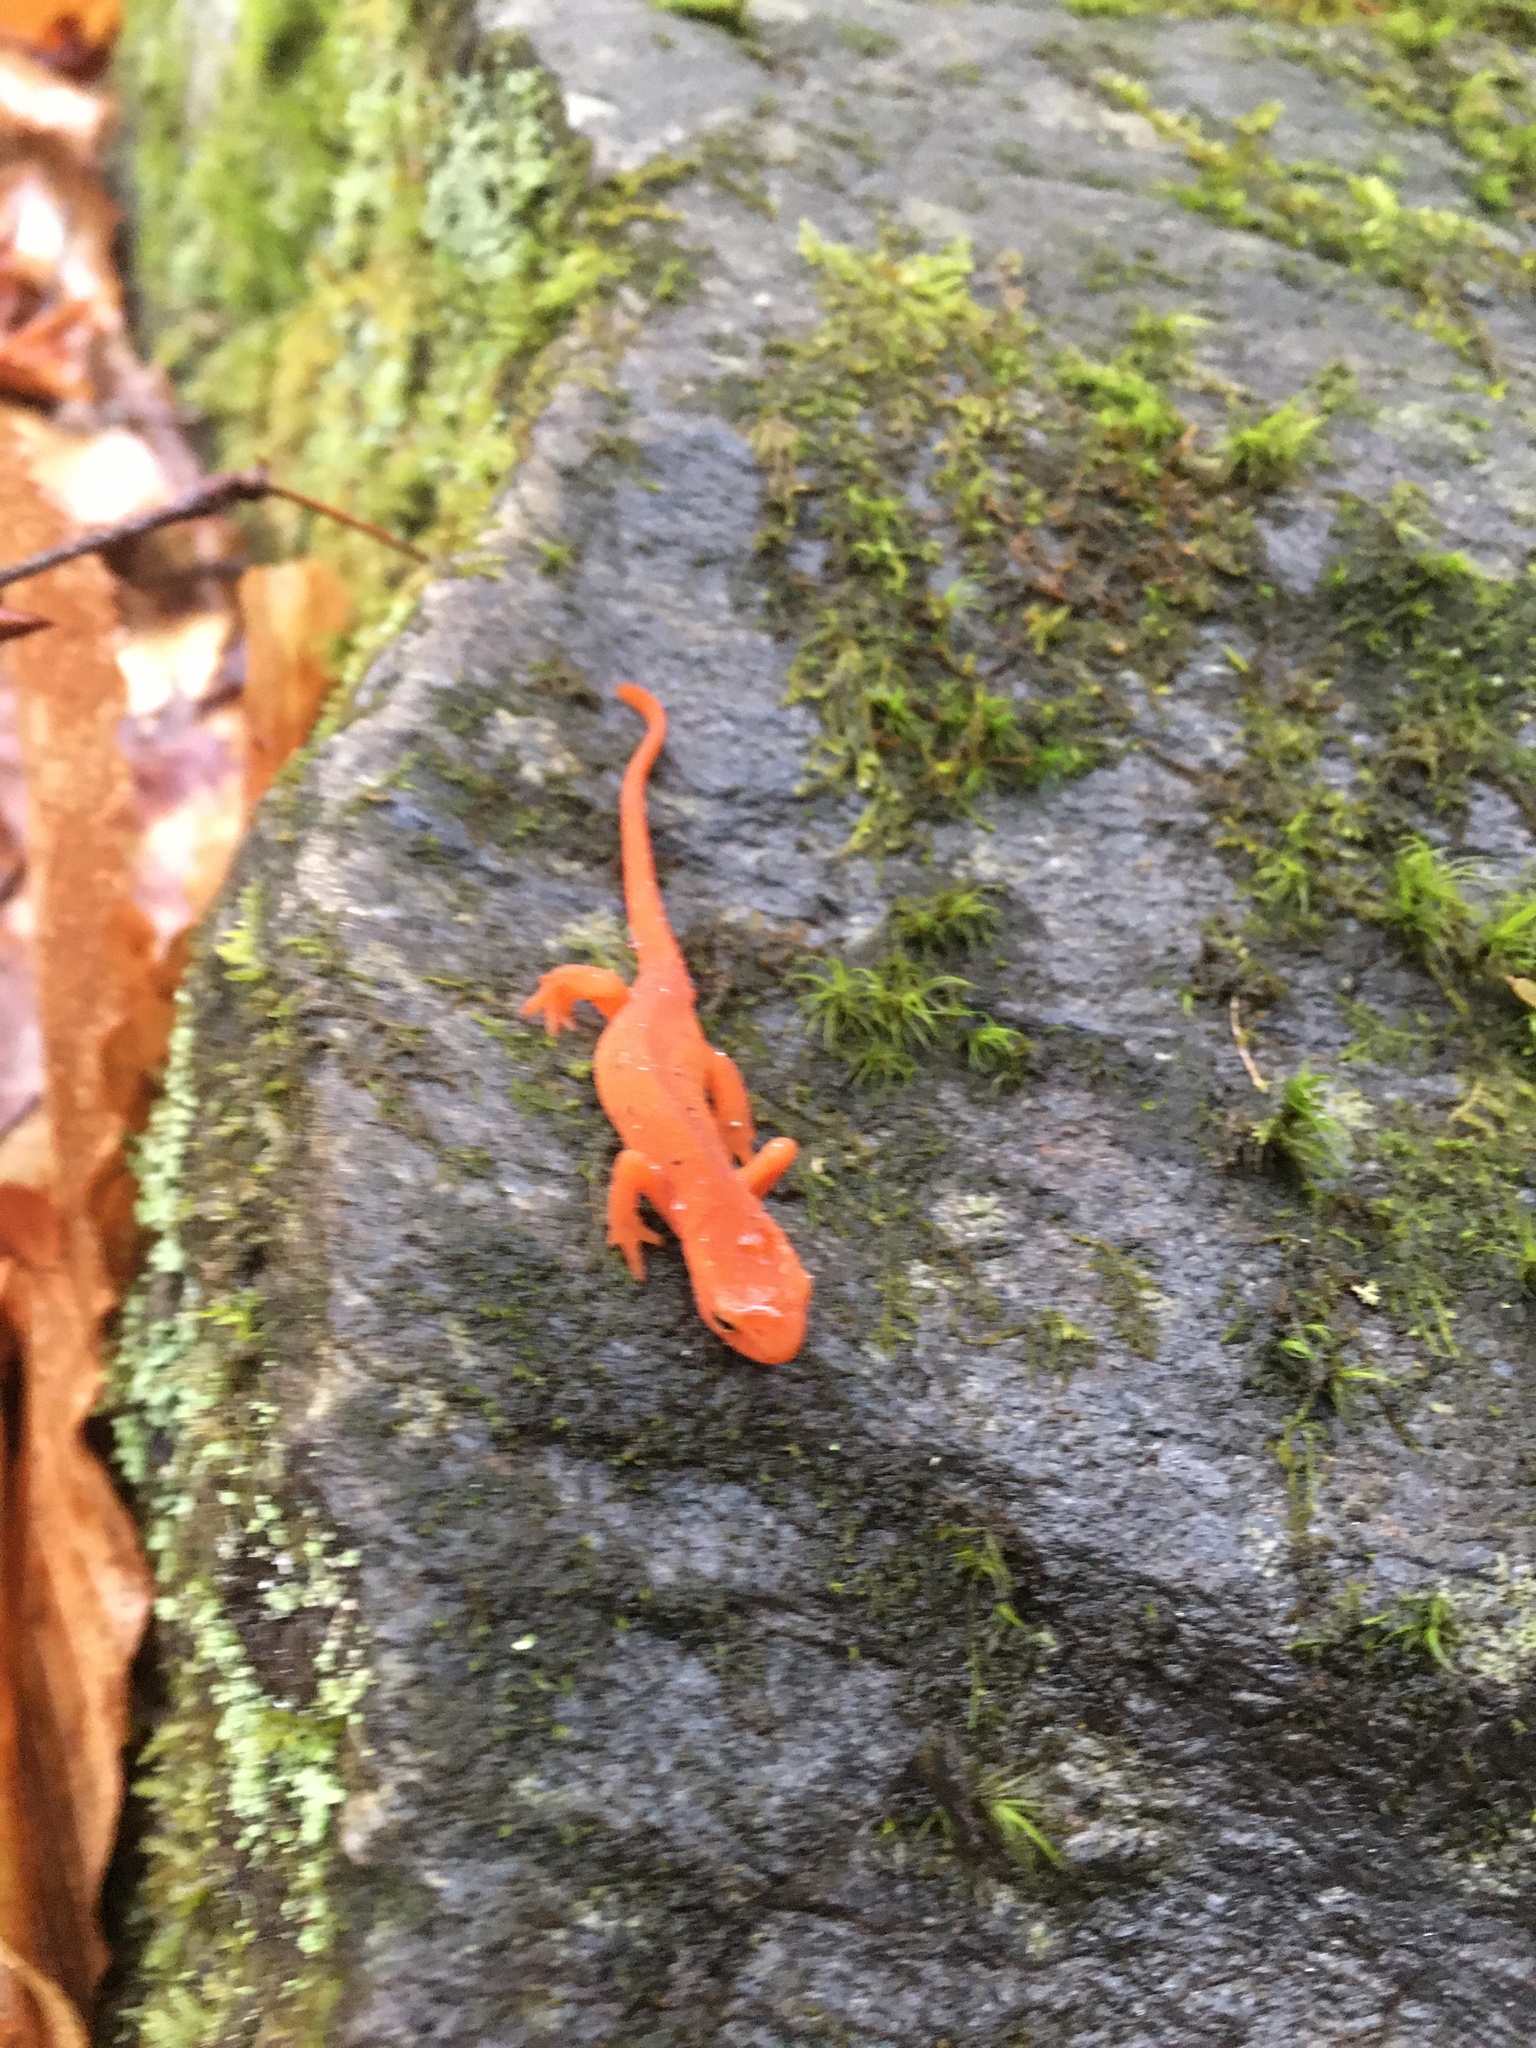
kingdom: Animalia
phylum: Chordata
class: Amphibia
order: Caudata
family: Salamandridae
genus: Notophthalmus
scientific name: Notophthalmus viridescens
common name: Eastern newt
